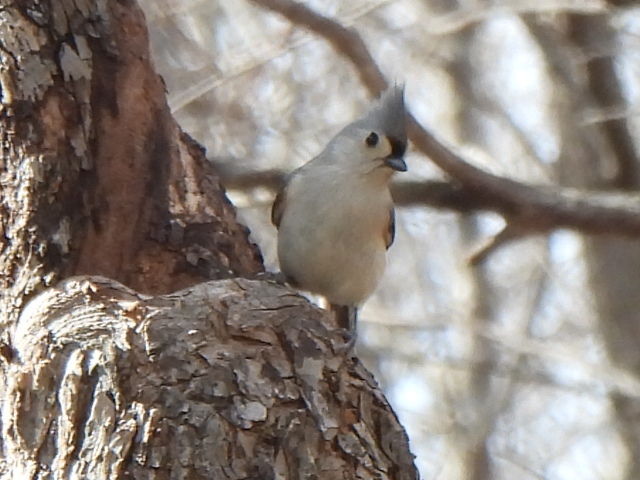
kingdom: Animalia
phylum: Chordata
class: Aves
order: Passeriformes
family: Paridae
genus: Baeolophus
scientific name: Baeolophus bicolor
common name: Tufted titmouse
